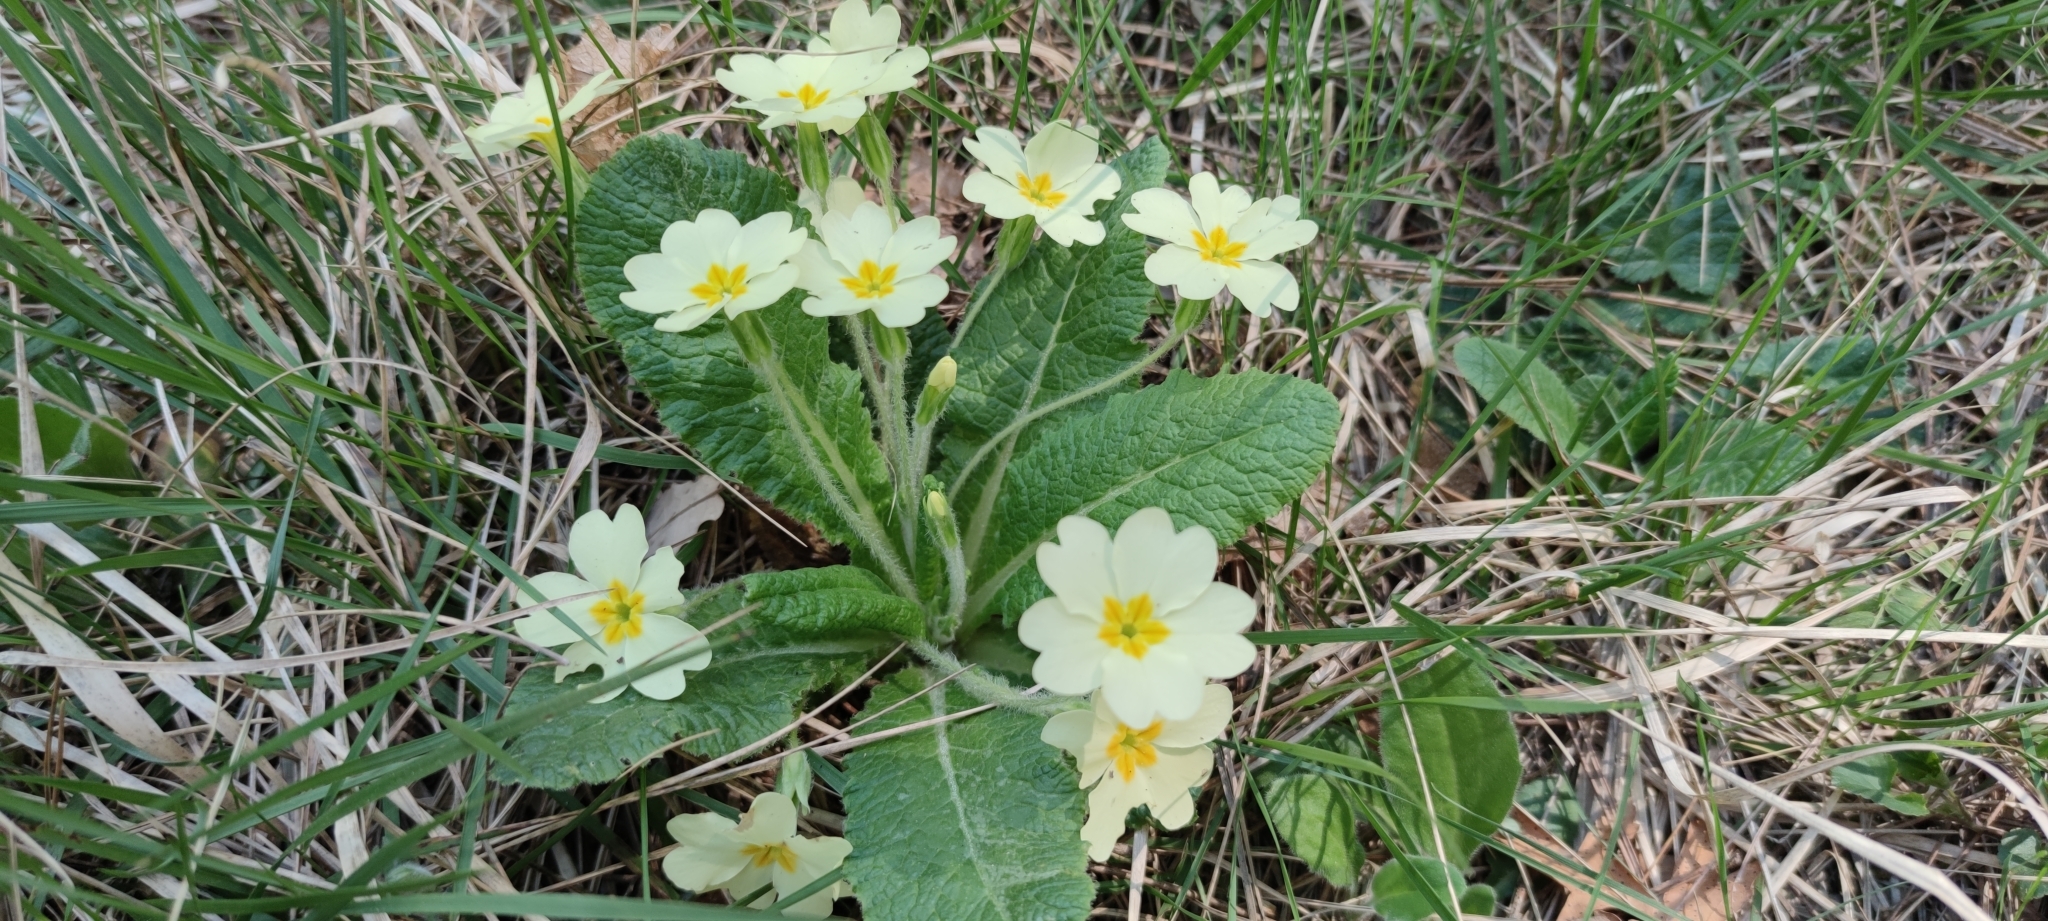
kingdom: Plantae
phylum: Tracheophyta
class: Magnoliopsida
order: Ericales
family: Primulaceae
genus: Primula
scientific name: Primula vulgaris
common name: Primrose
